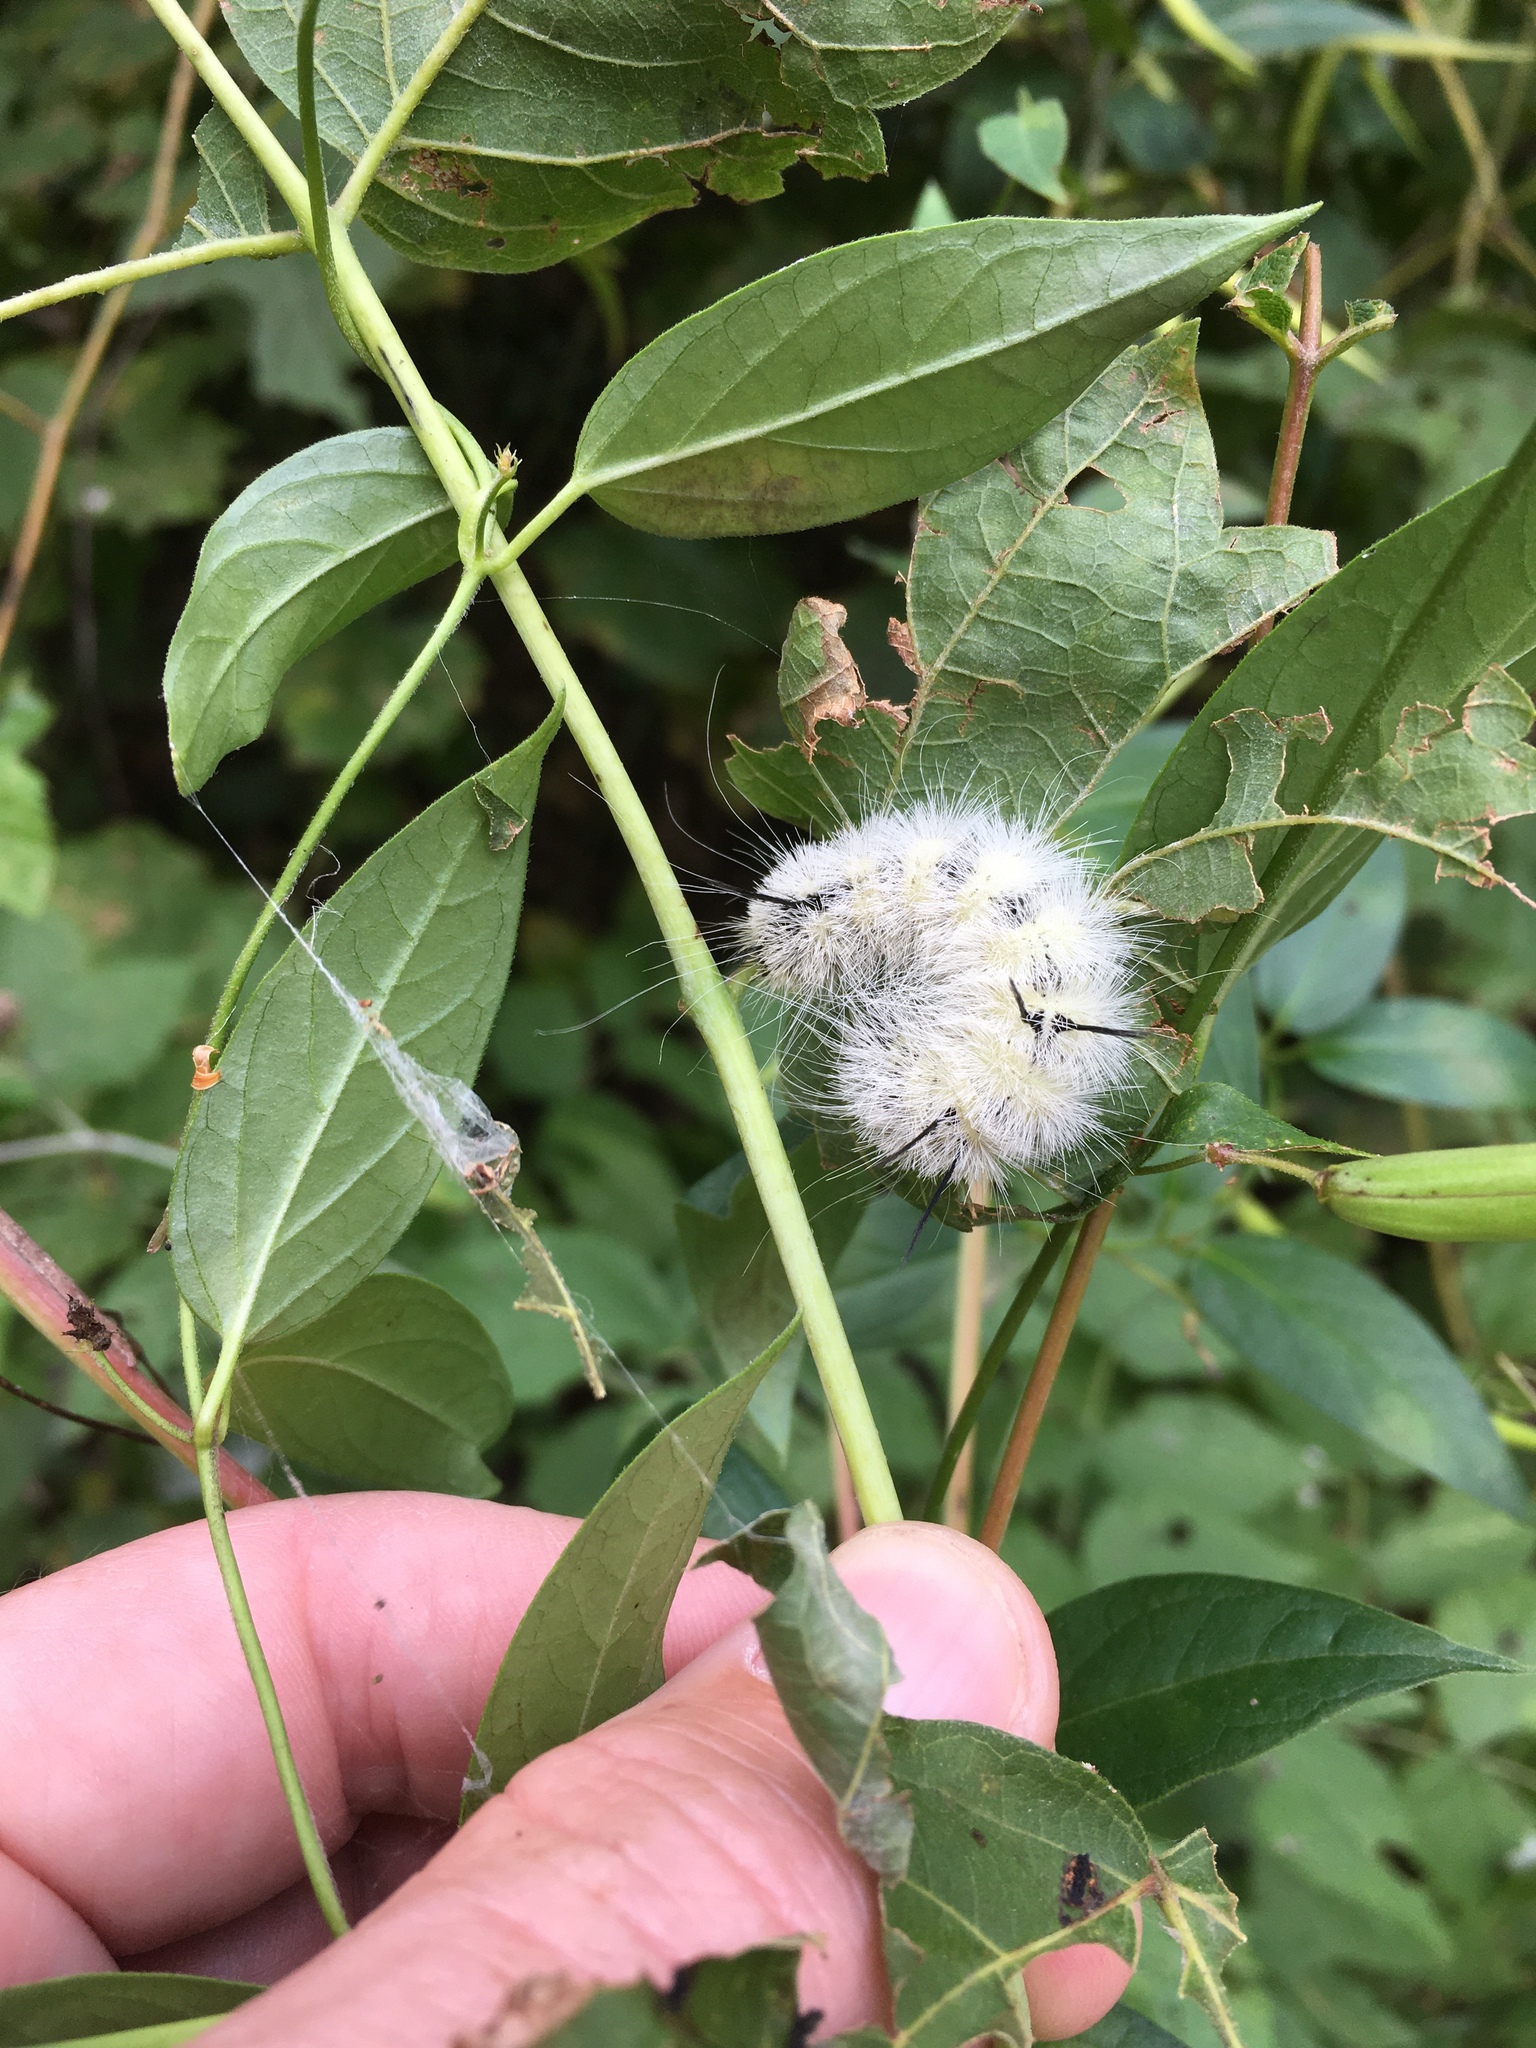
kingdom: Animalia
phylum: Arthropoda
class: Insecta
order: Lepidoptera
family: Noctuidae
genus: Acronicta
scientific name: Acronicta americana
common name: American dagger
